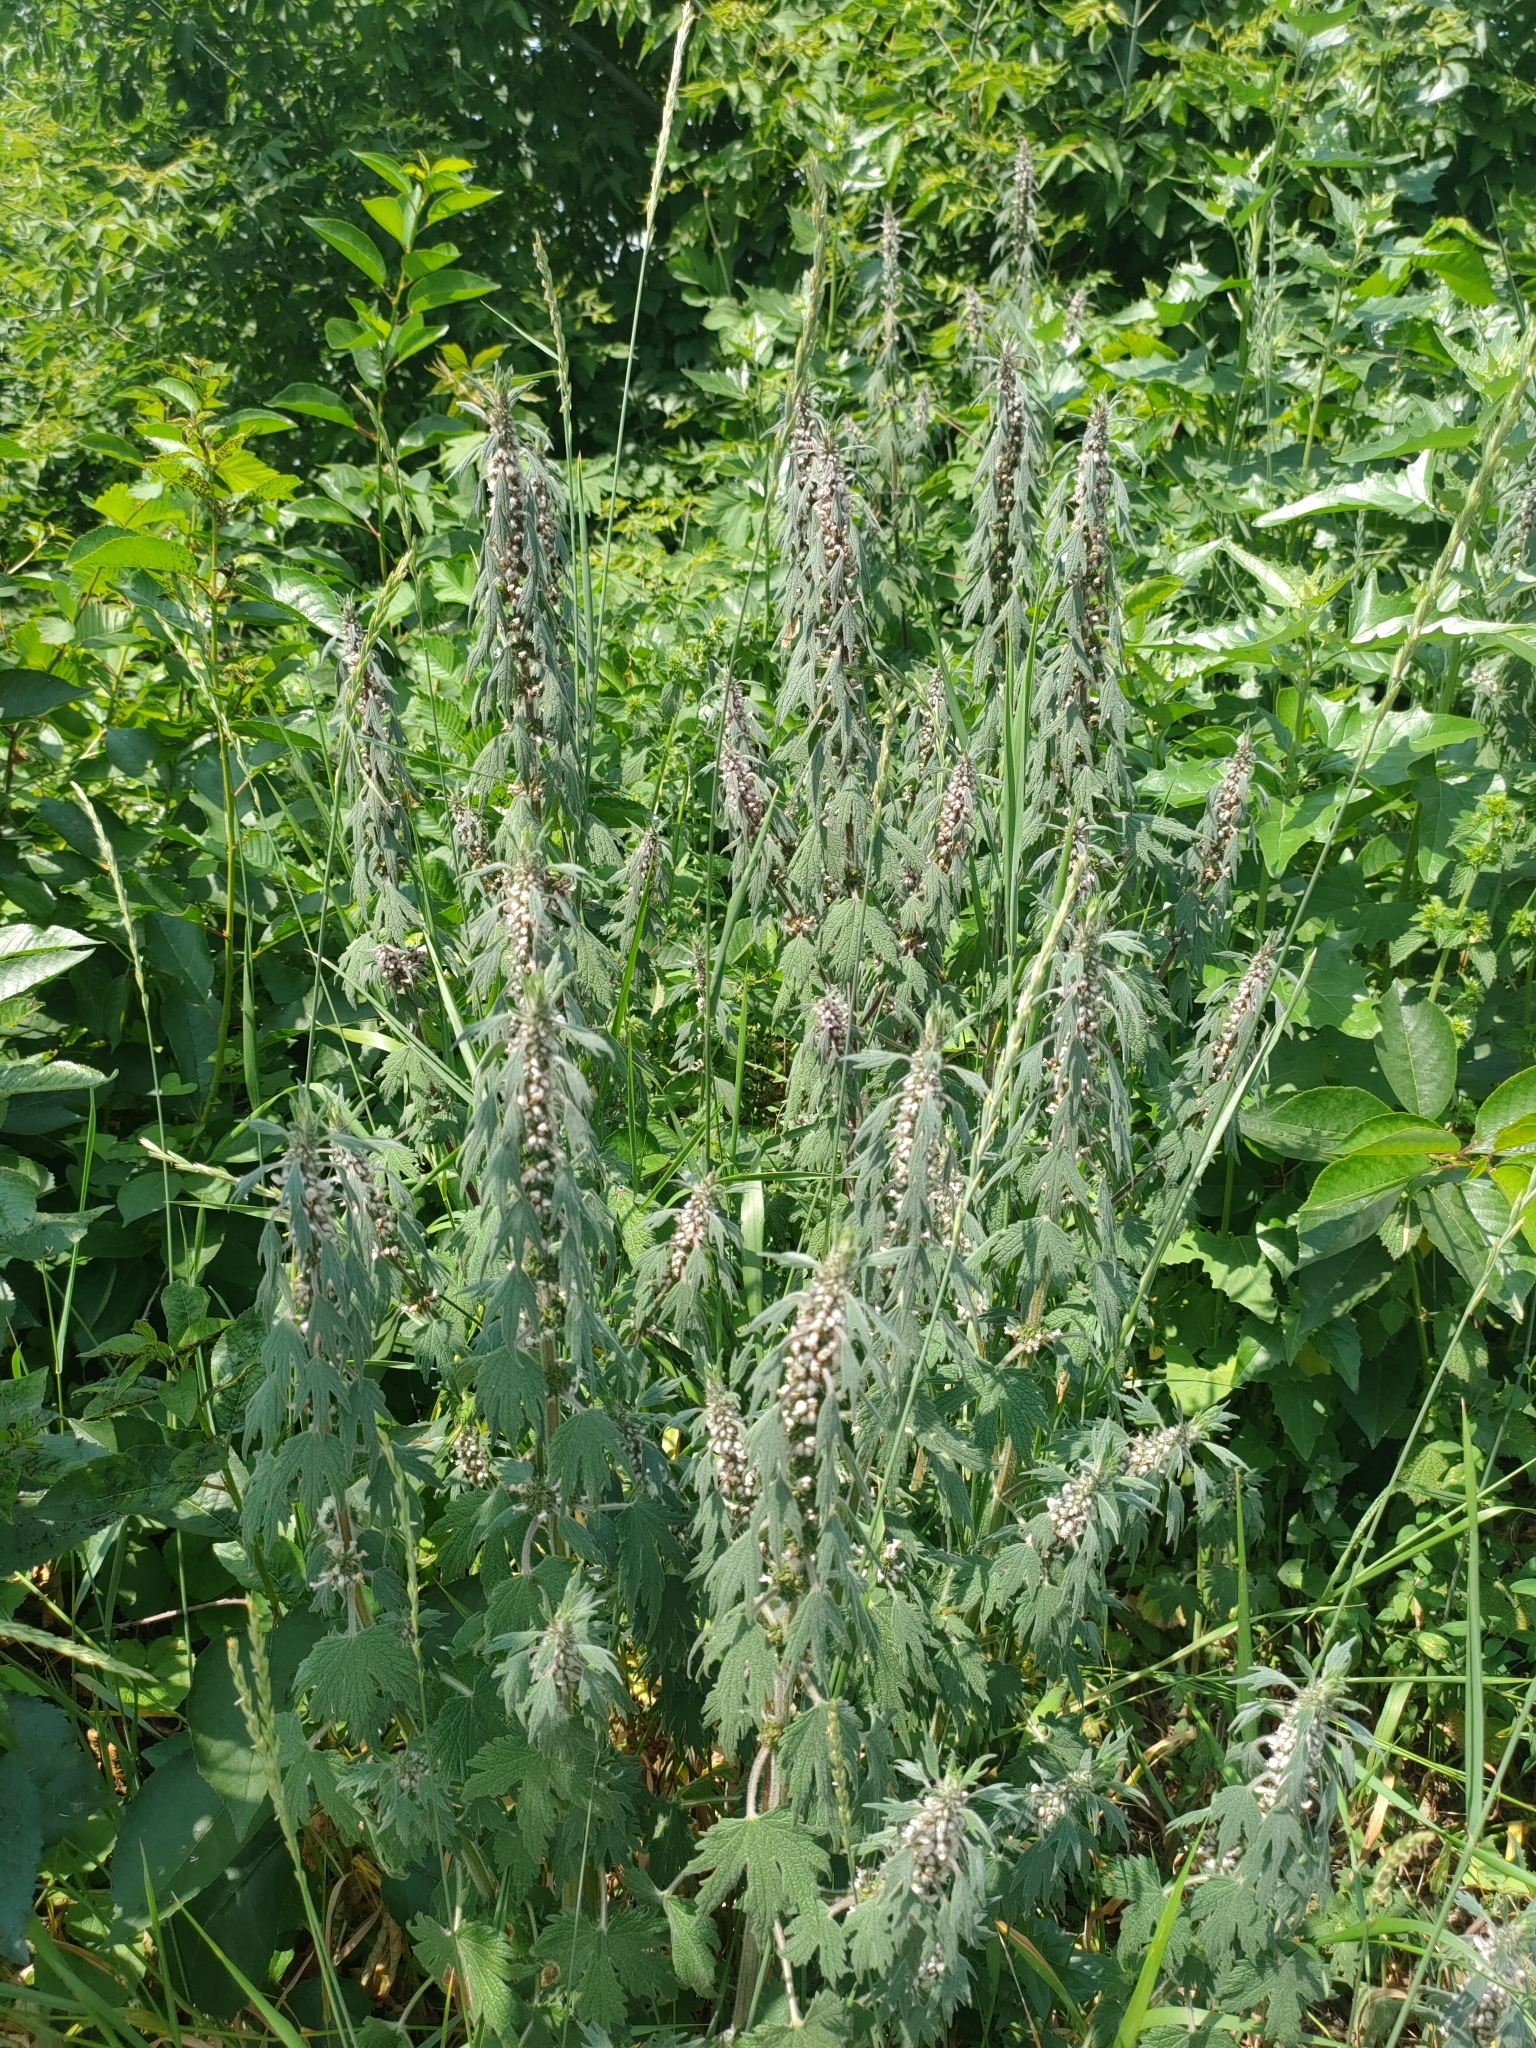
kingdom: Plantae
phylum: Tracheophyta
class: Magnoliopsida
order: Lamiales
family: Lamiaceae
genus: Leonurus
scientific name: Leonurus quinquelobatus
